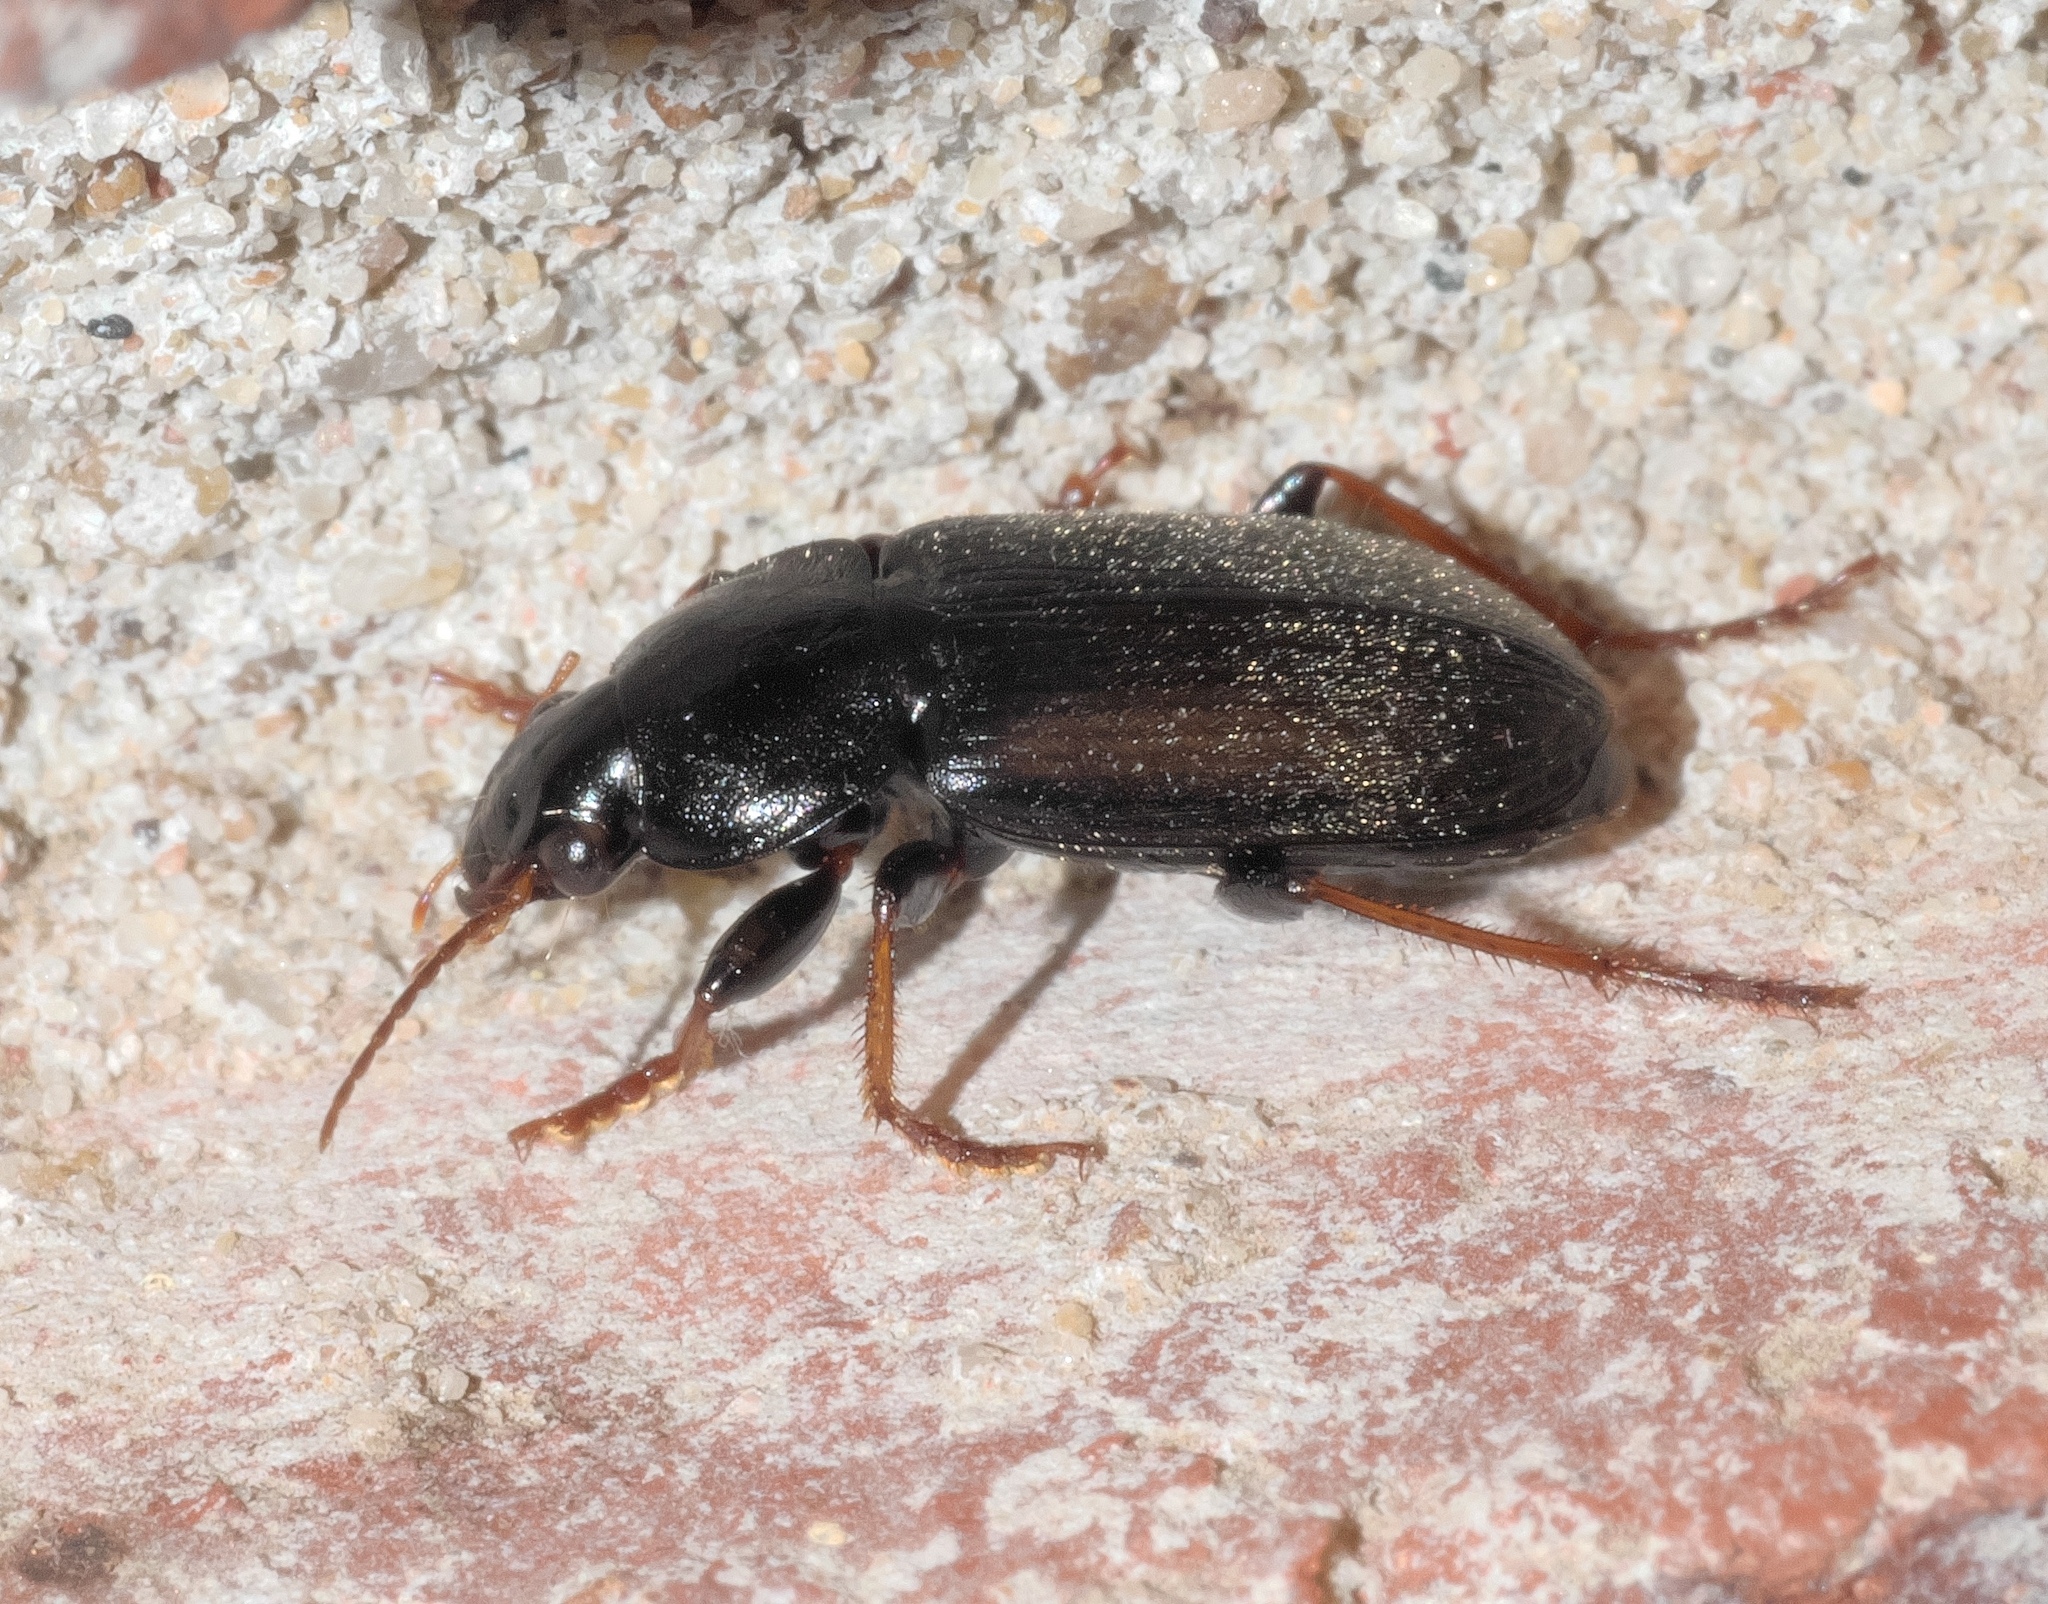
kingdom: Animalia
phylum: Arthropoda
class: Insecta
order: Coleoptera
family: Carabidae
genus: Amphasia
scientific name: Amphasia sericea
